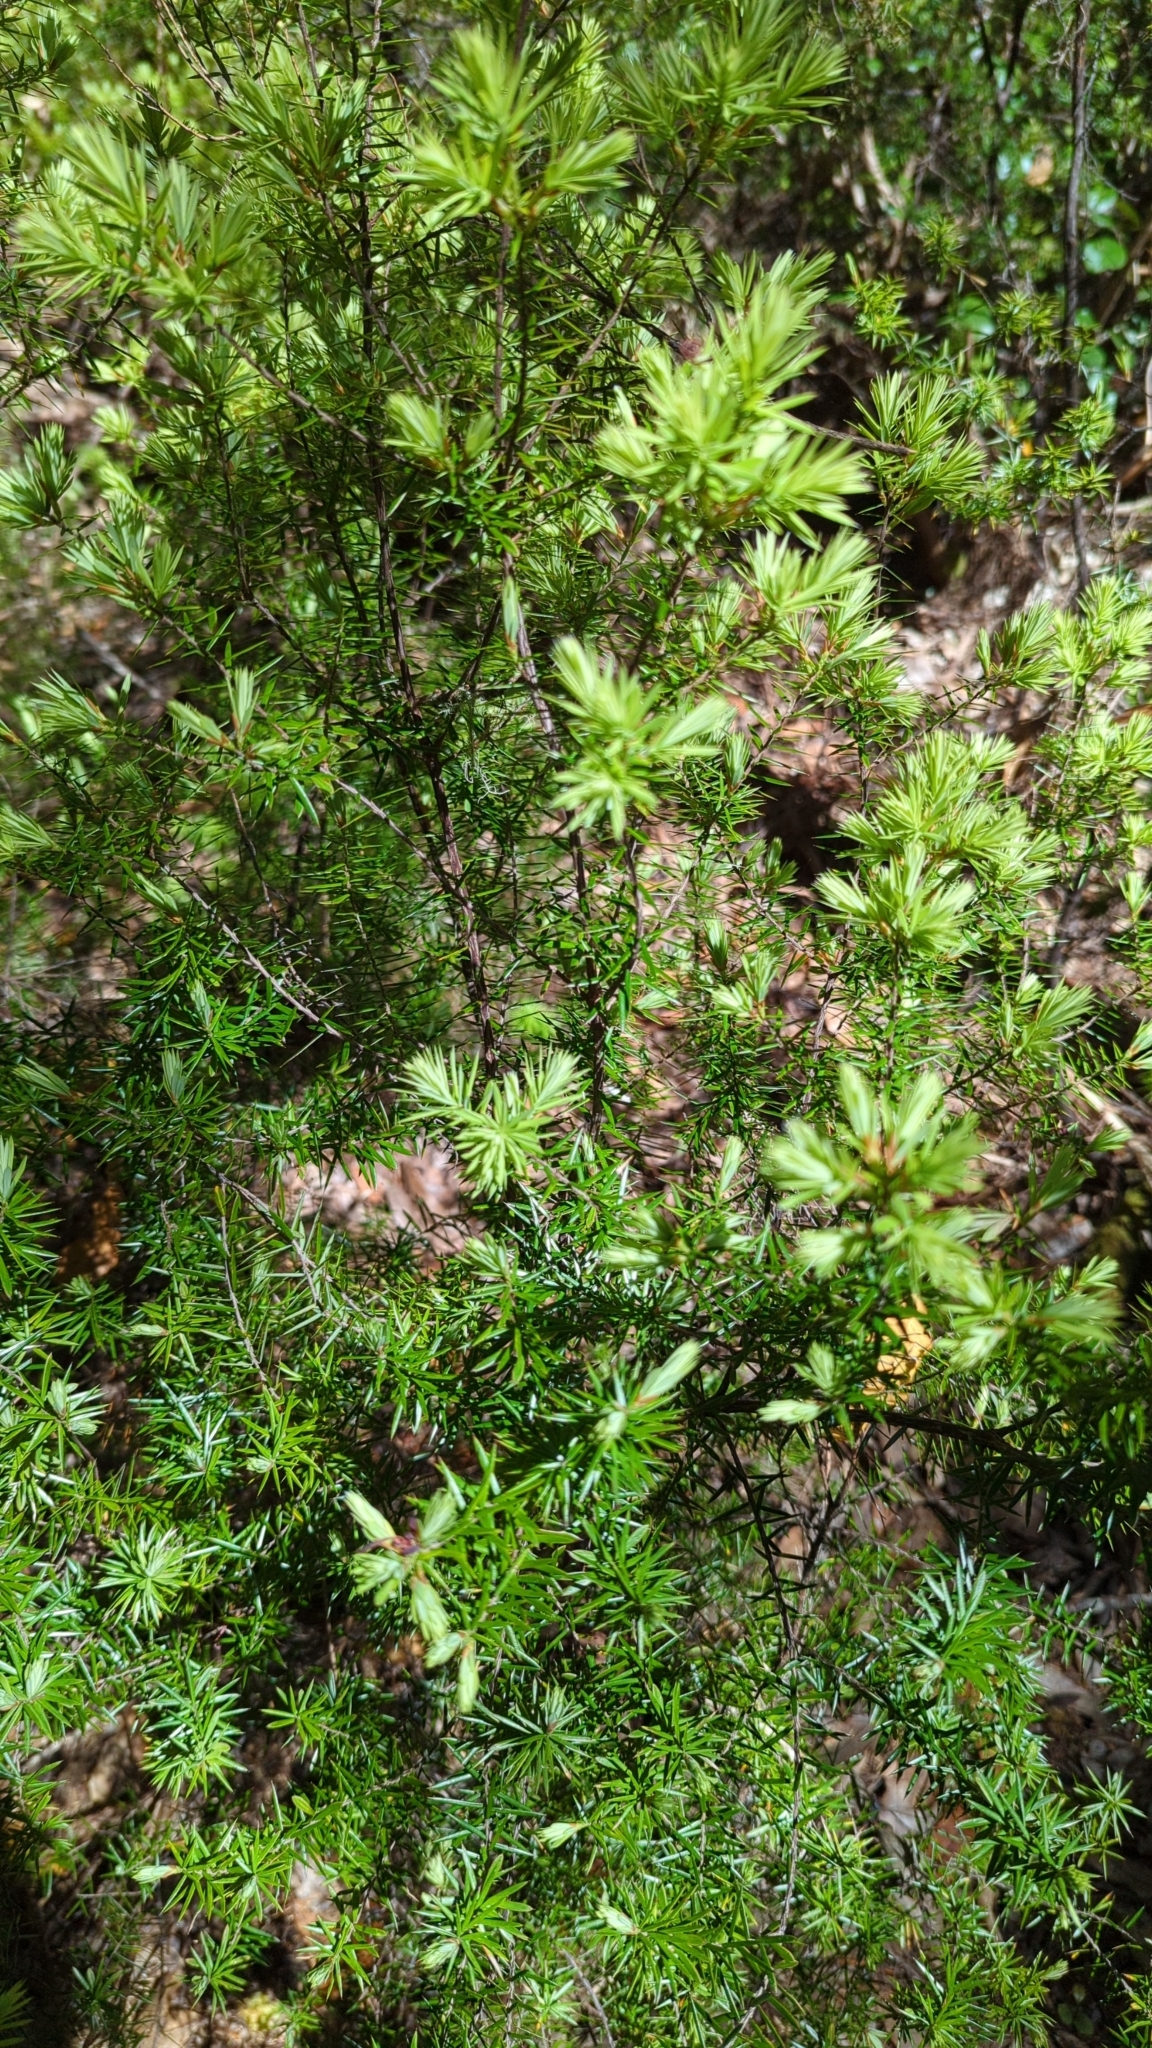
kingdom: Plantae
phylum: Tracheophyta
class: Magnoliopsida
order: Ericales
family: Ericaceae
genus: Leptecophylla
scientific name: Leptecophylla juniperina
